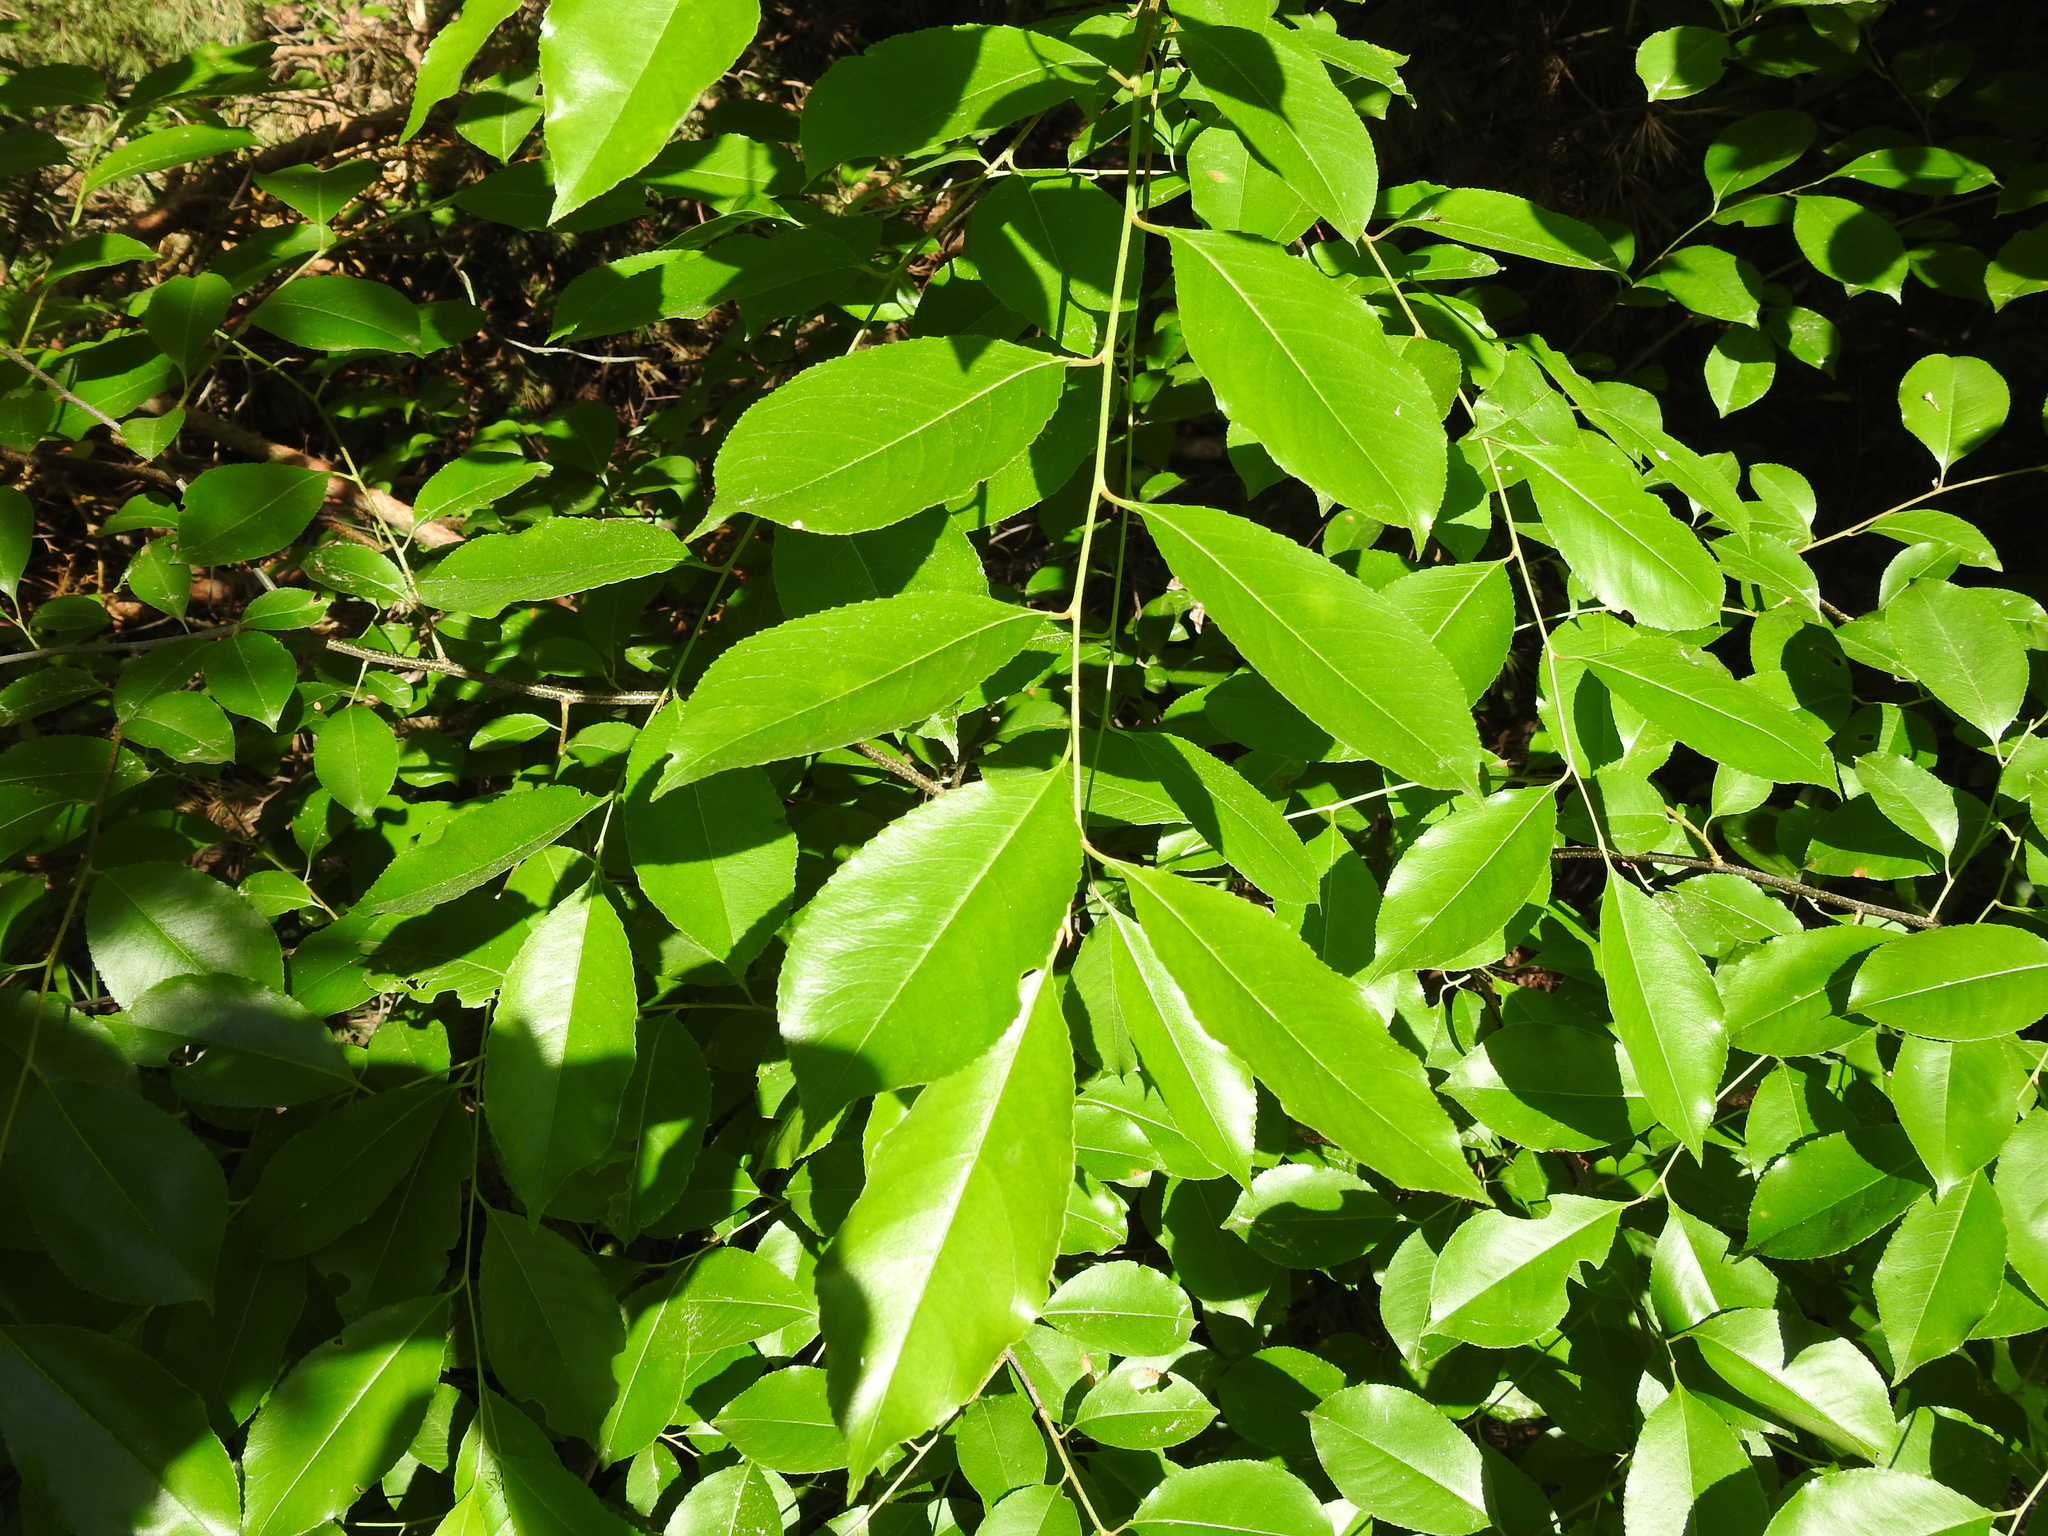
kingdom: Plantae
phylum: Tracheophyta
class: Magnoliopsida
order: Rosales
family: Rosaceae
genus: Prunus
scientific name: Prunus serotina
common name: Black cherry
